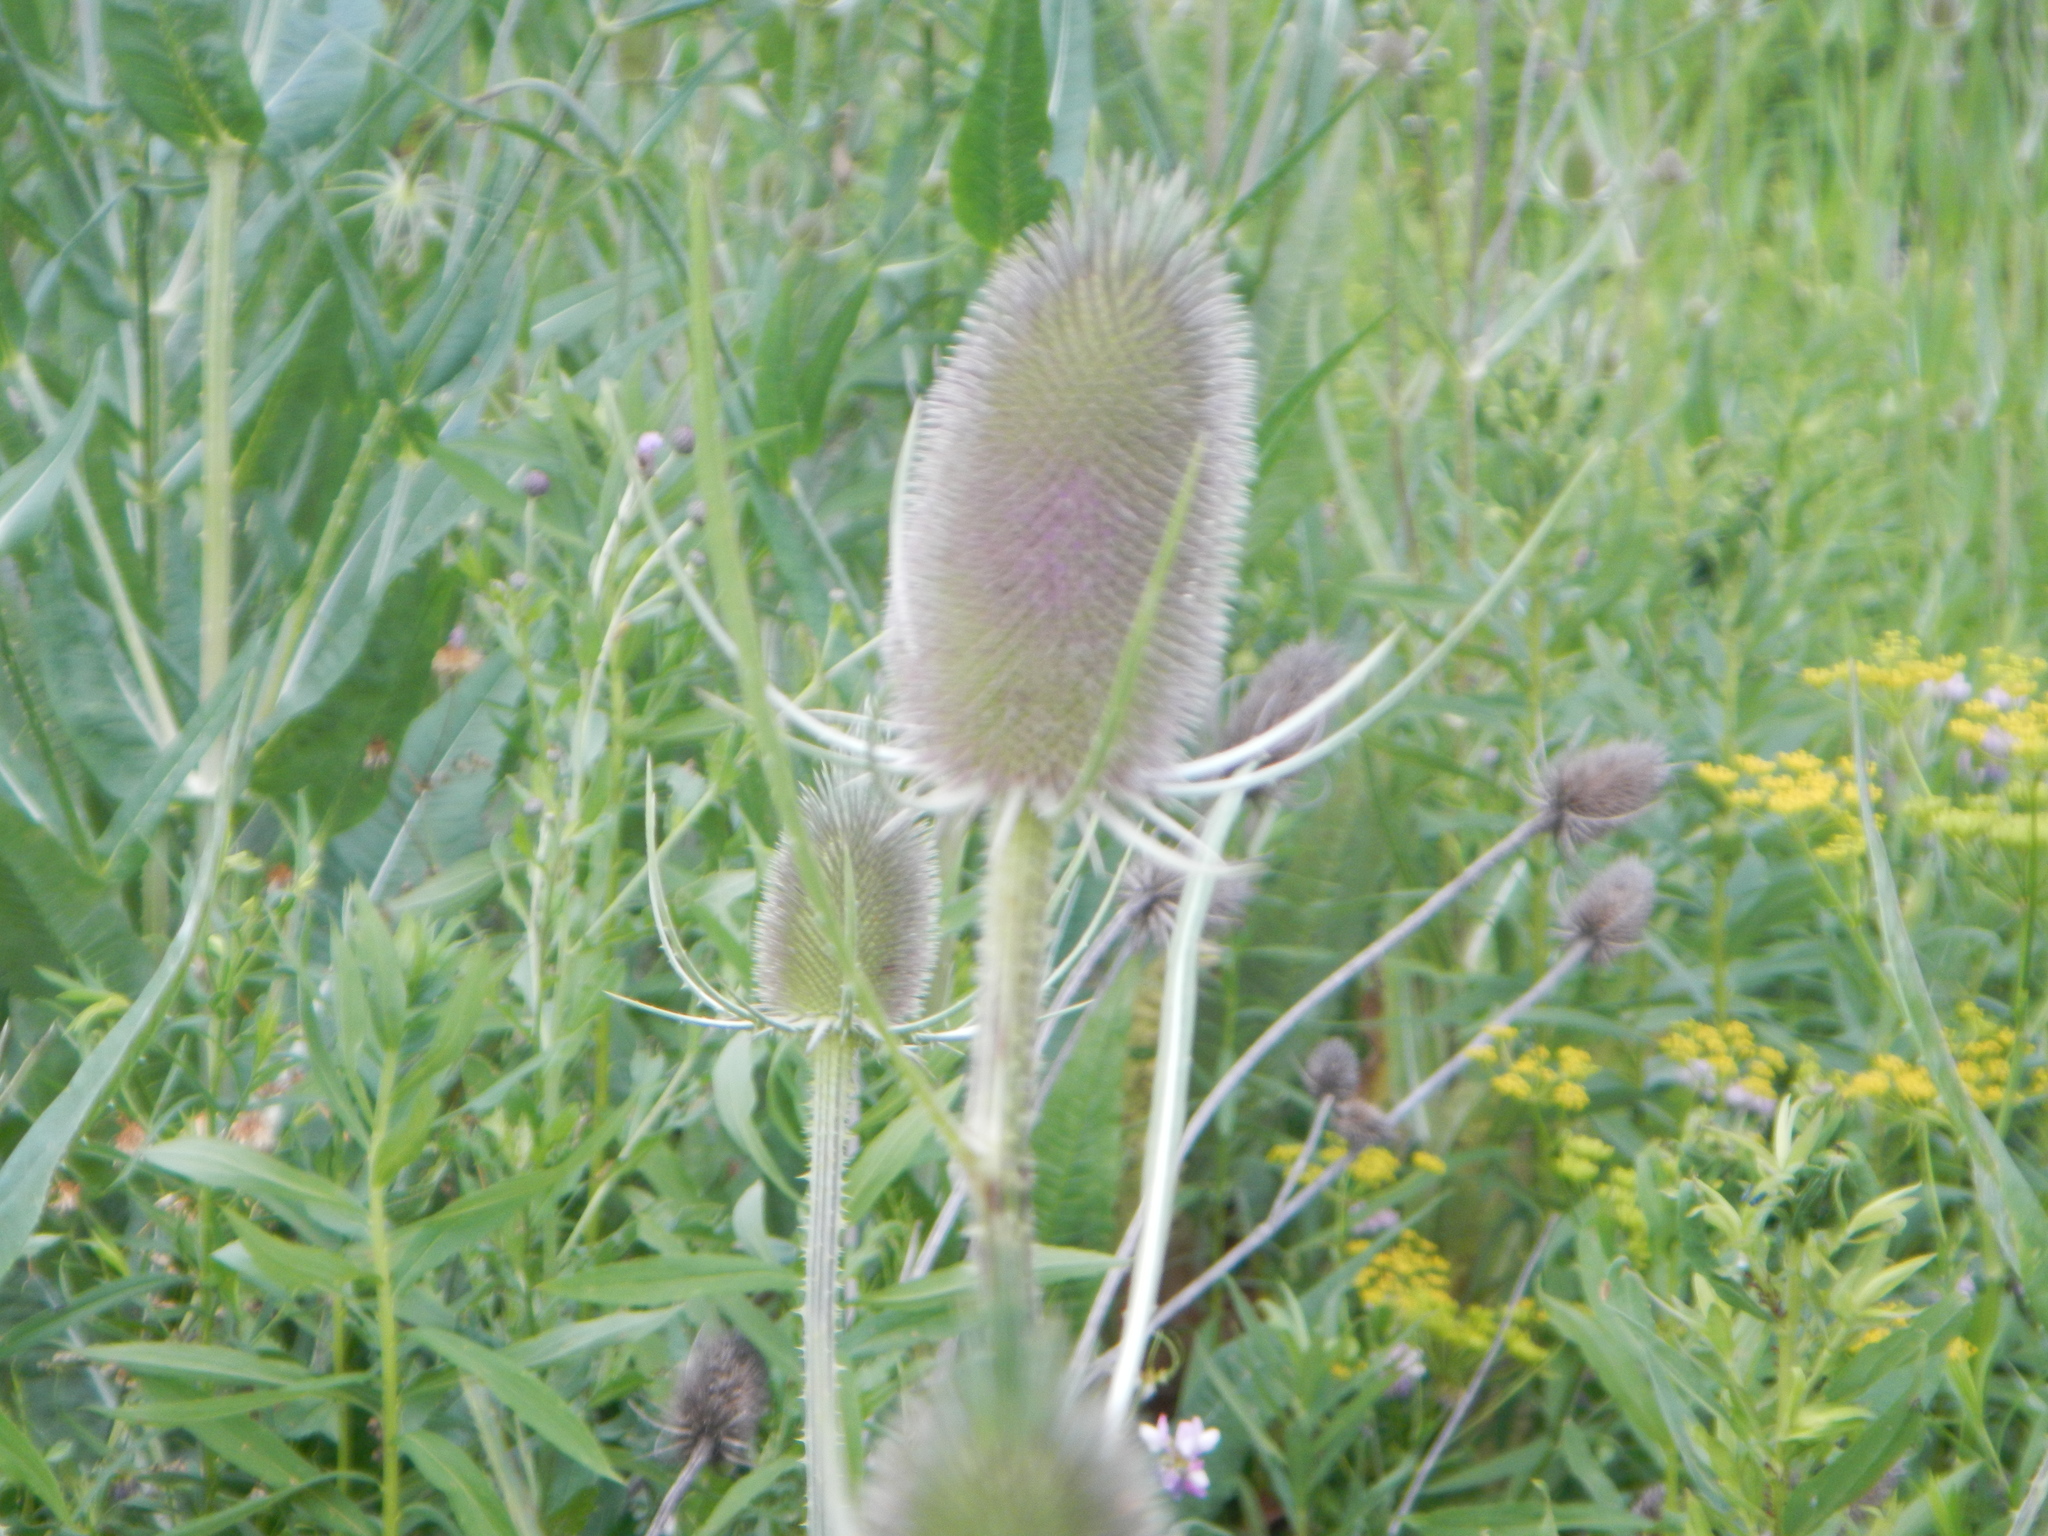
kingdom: Plantae
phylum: Tracheophyta
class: Magnoliopsida
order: Dipsacales
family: Caprifoliaceae
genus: Dipsacus
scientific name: Dipsacus fullonum
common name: Teasel
